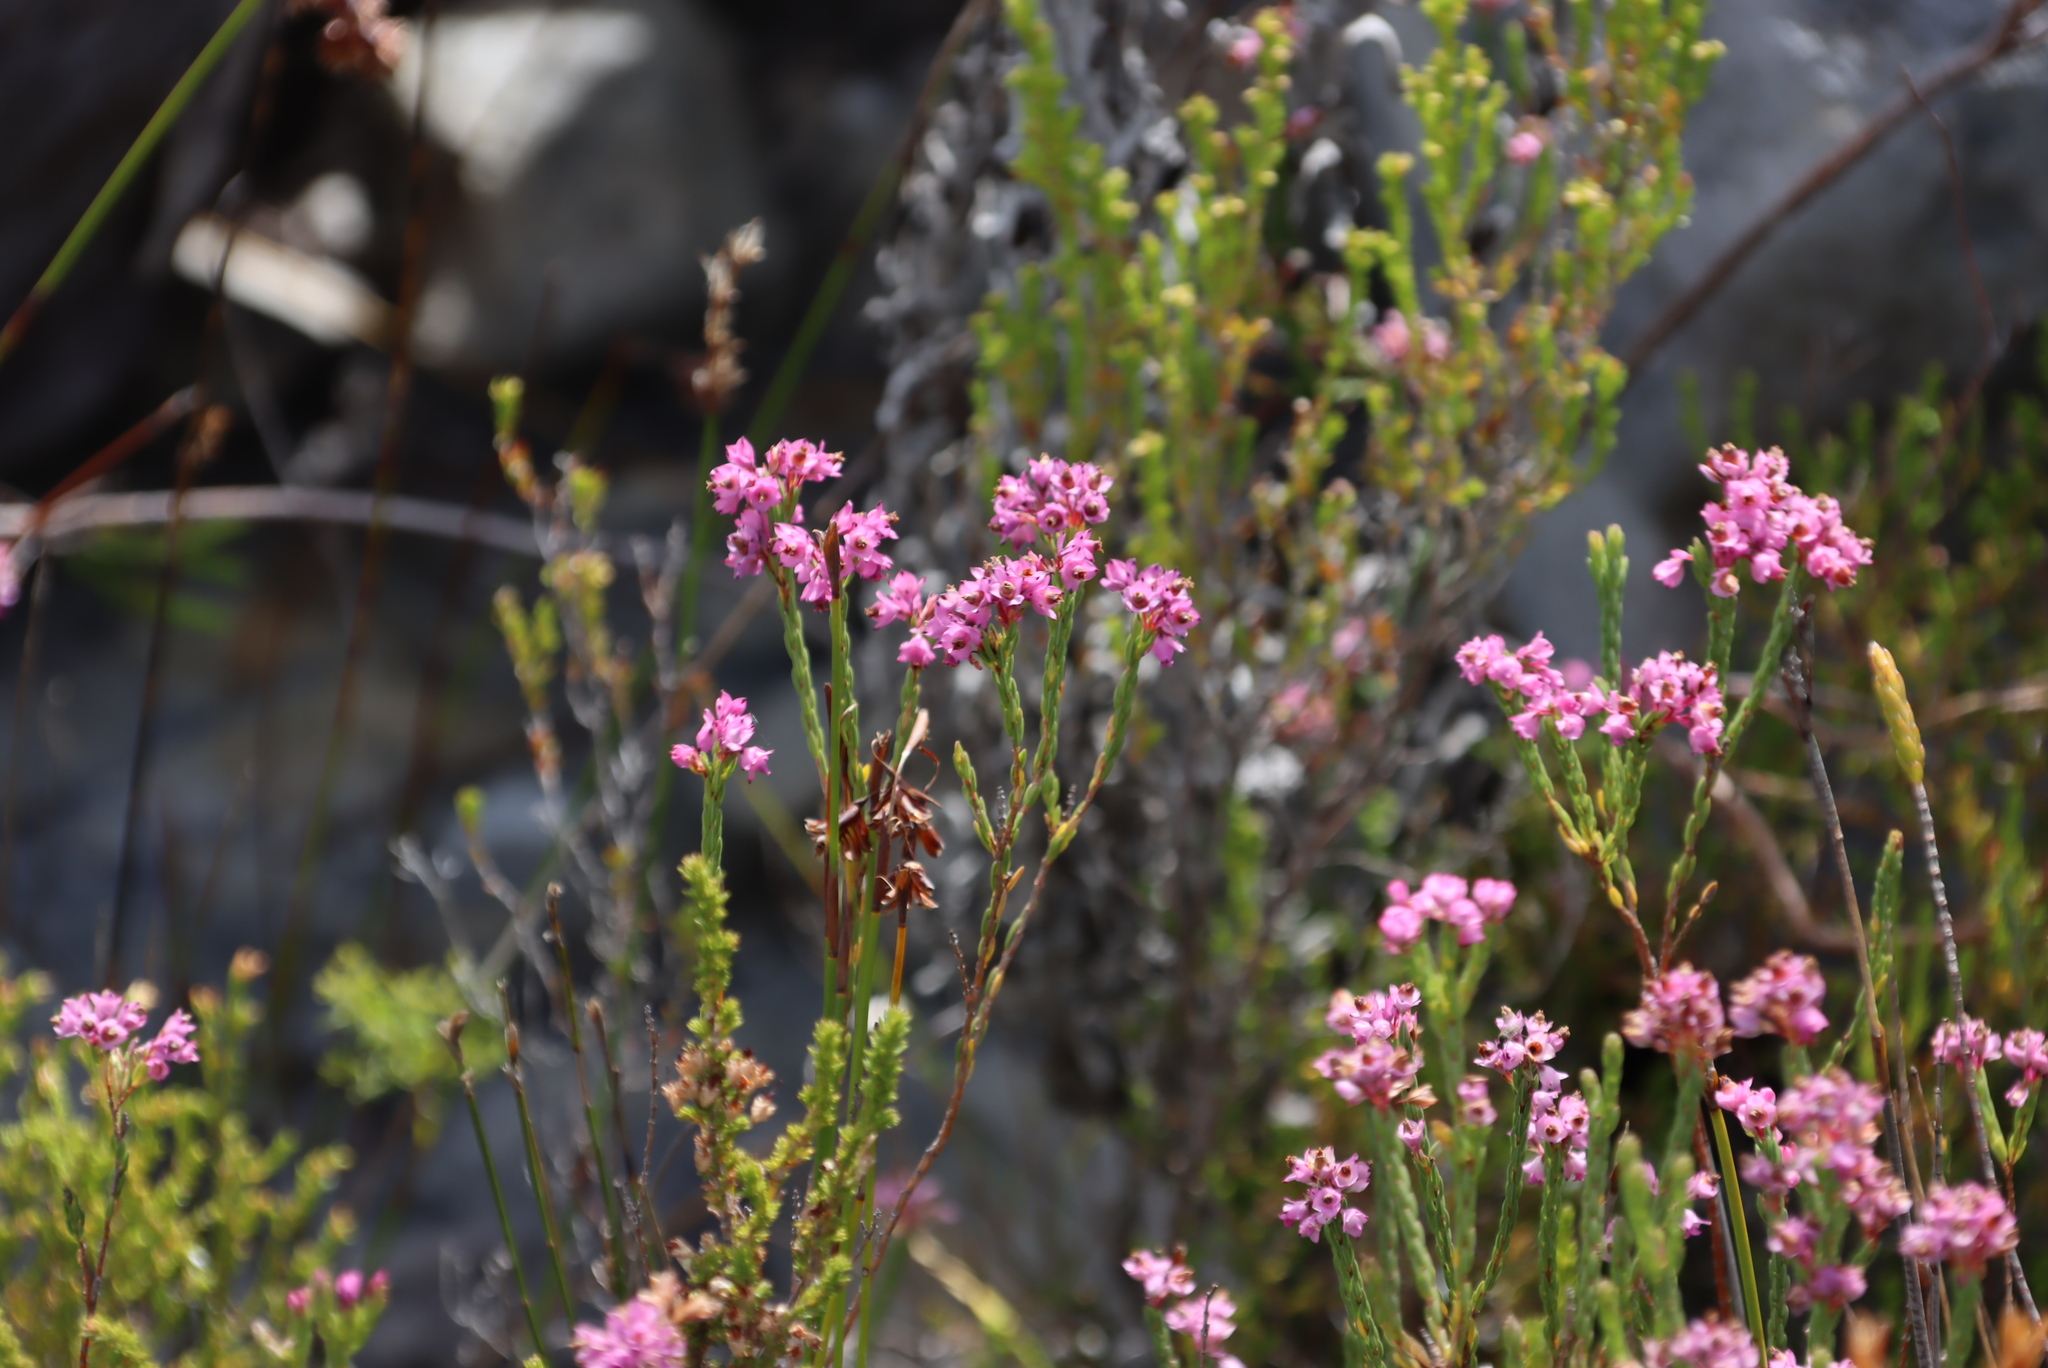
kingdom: Plantae
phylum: Tracheophyta
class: Magnoliopsida
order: Ericales
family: Ericaceae
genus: Erica
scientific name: Erica corifolia
